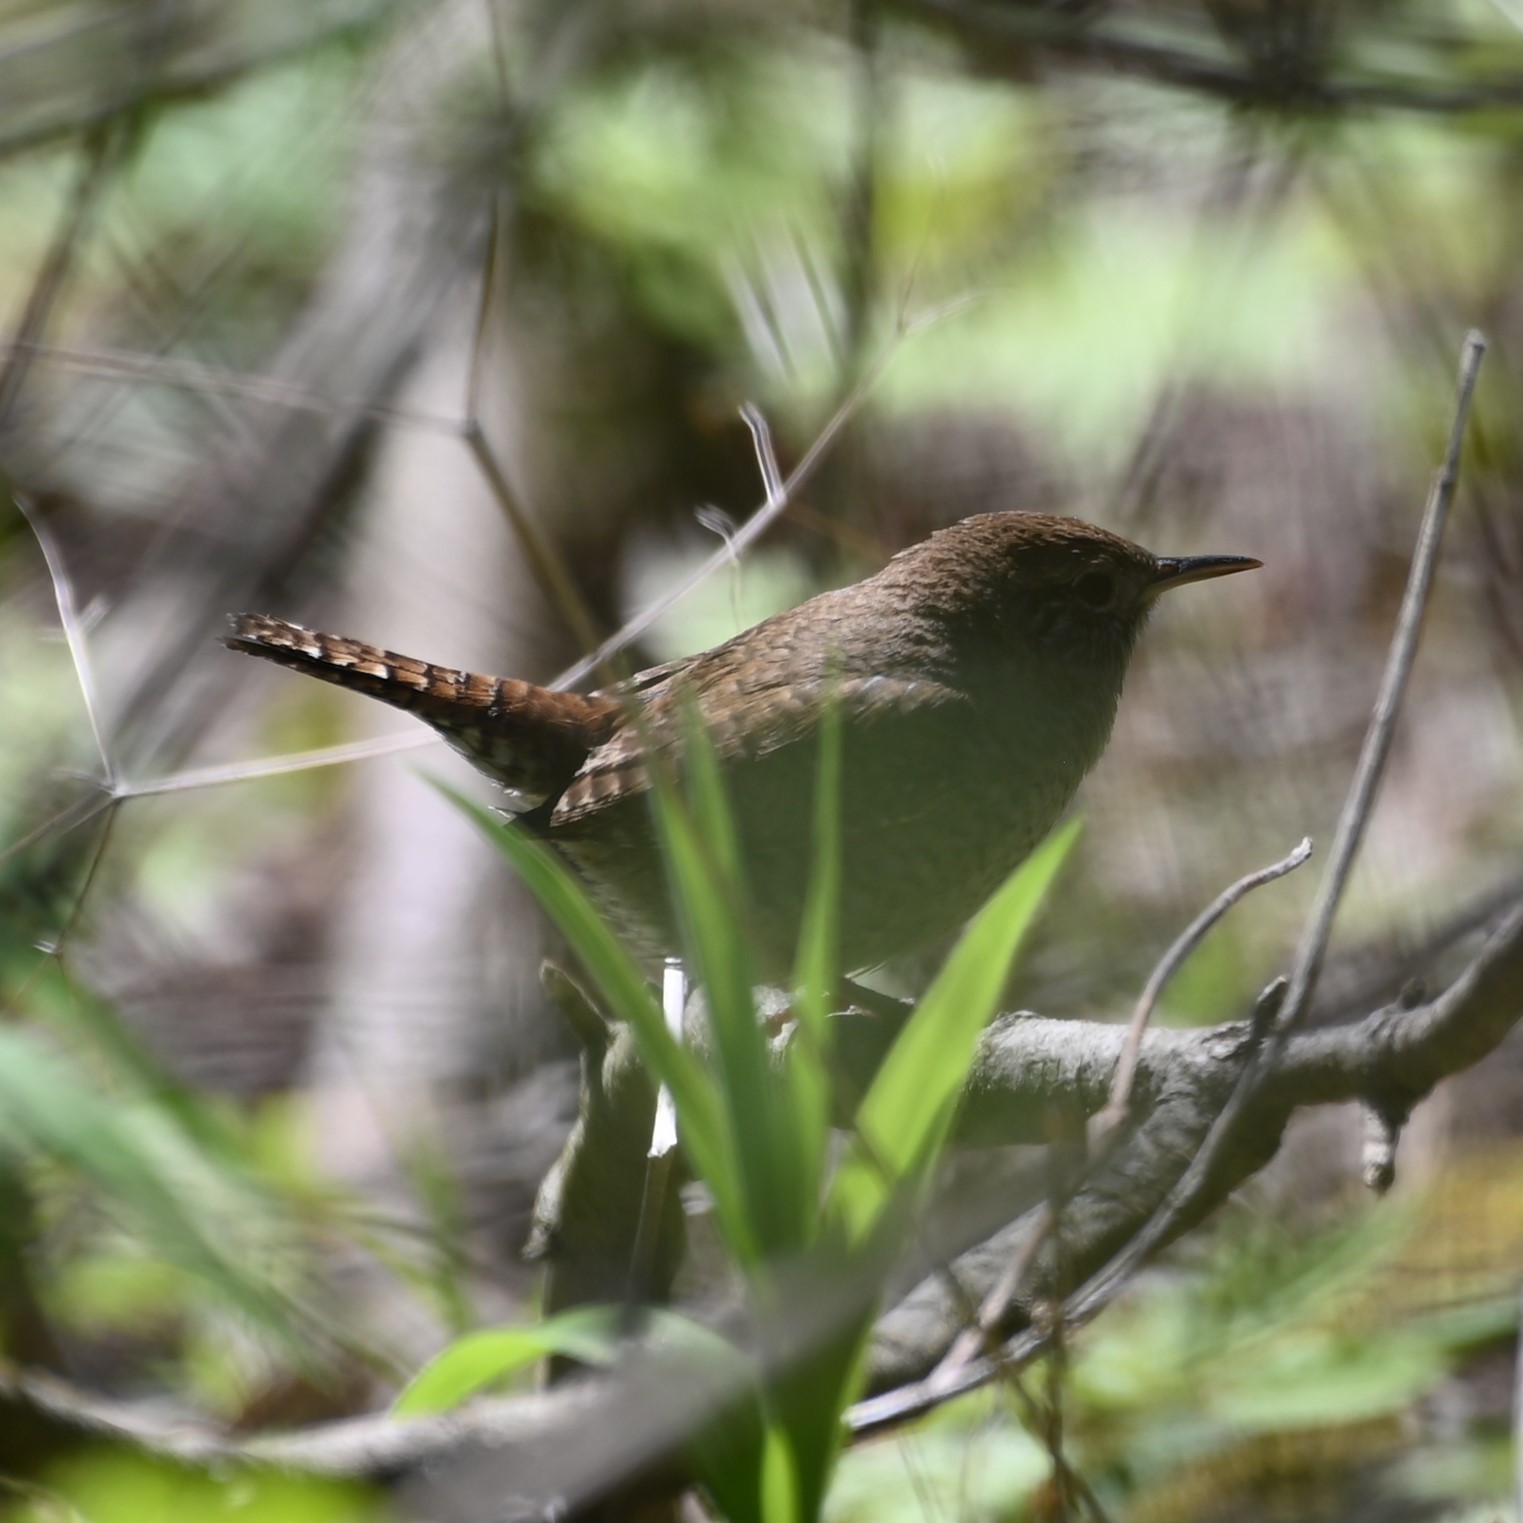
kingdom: Animalia
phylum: Chordata
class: Aves
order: Passeriformes
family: Troglodytidae
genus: Troglodytes
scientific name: Troglodytes aedon
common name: House wren
